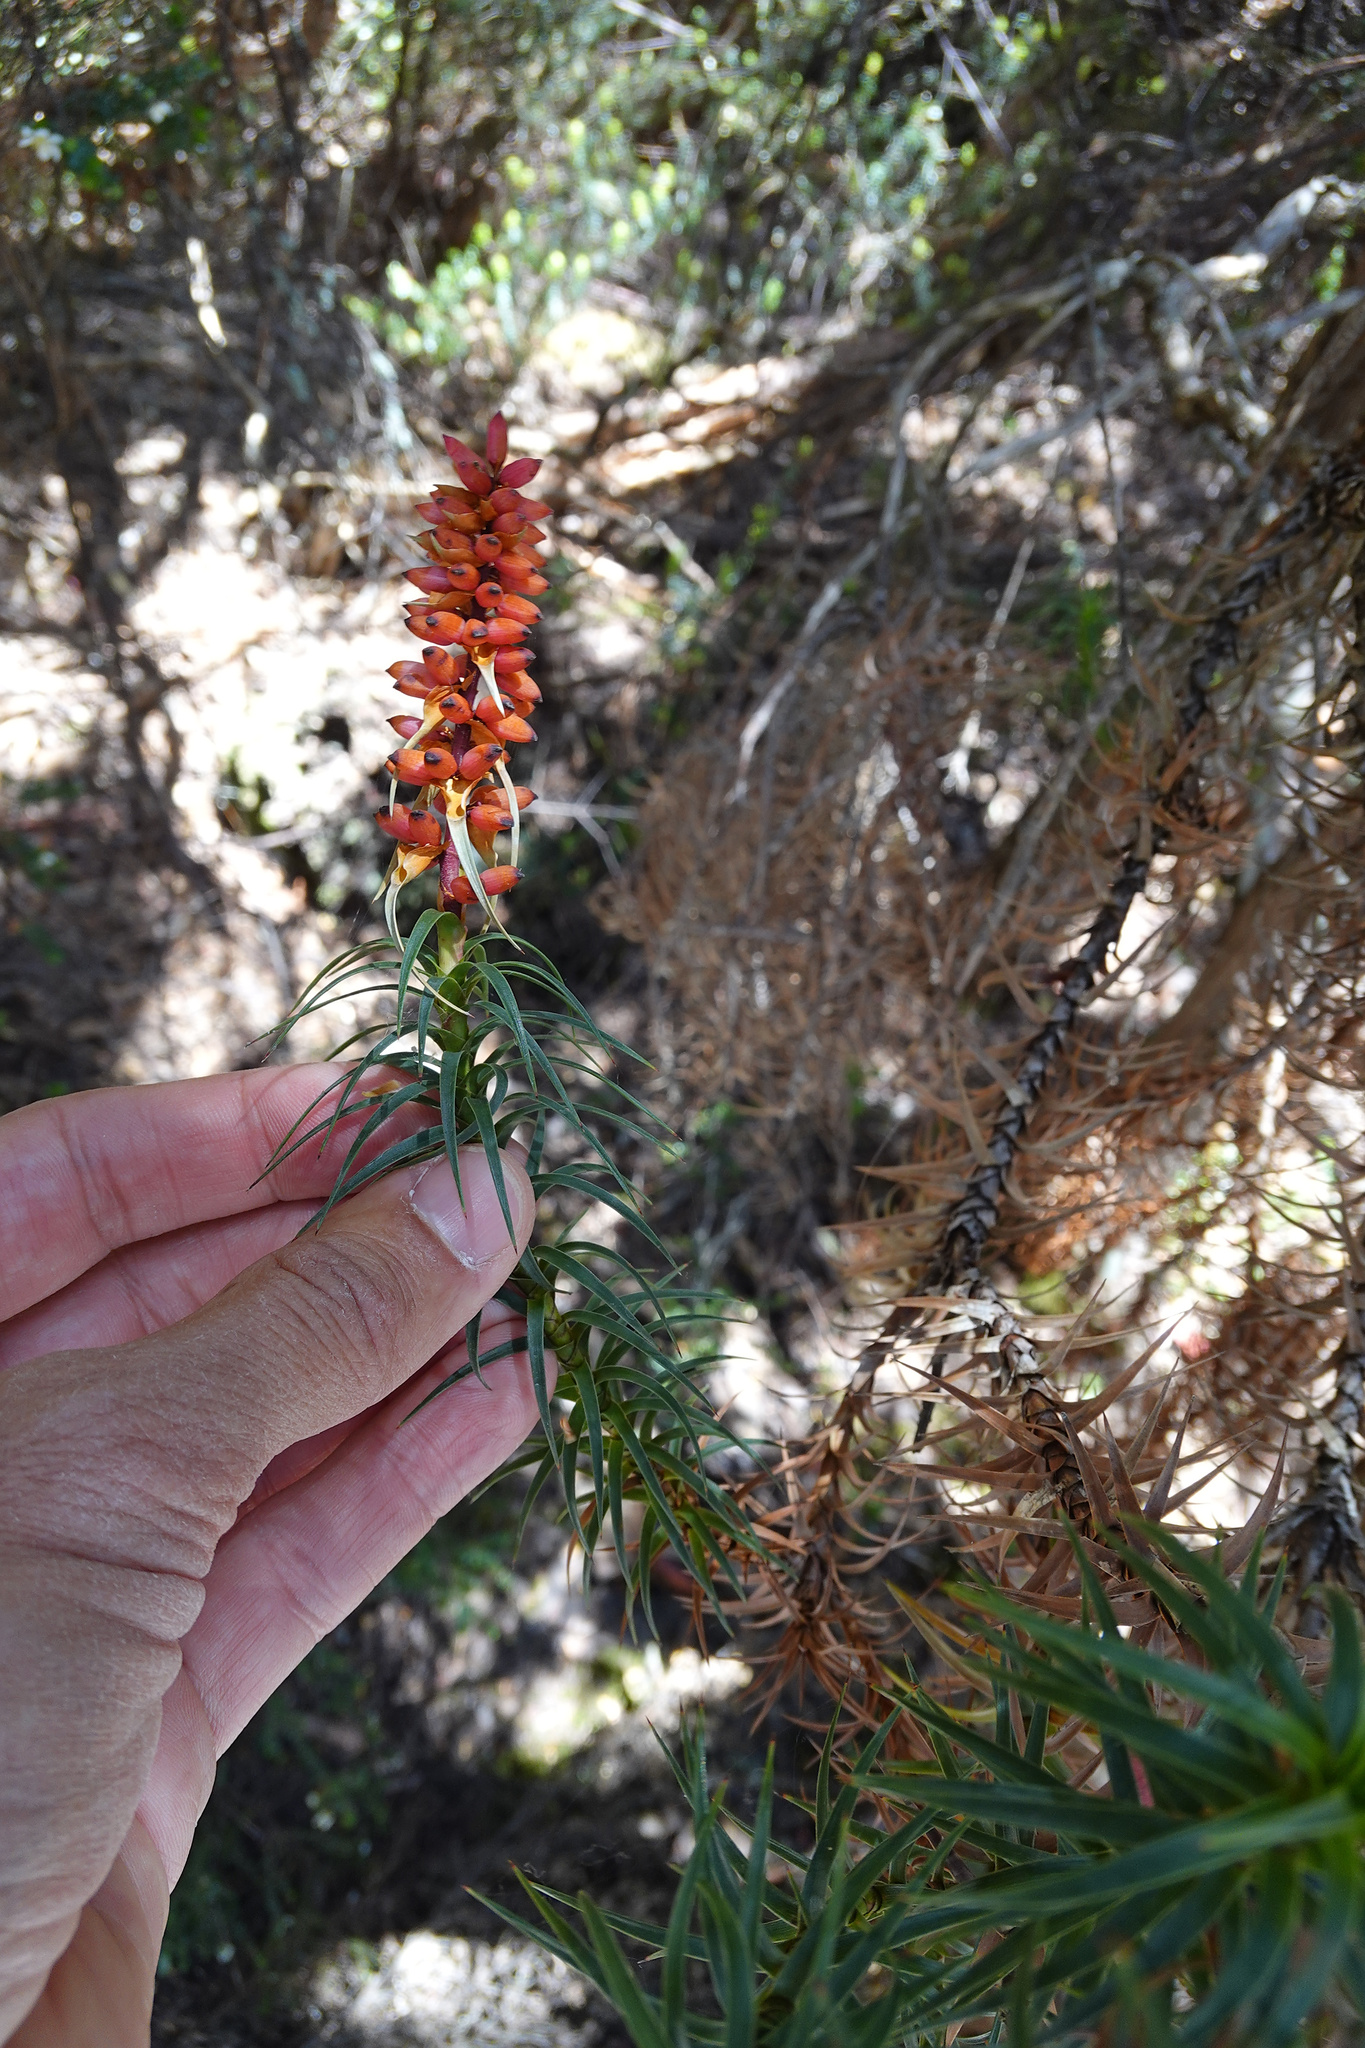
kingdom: Plantae
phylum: Tracheophyta
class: Magnoliopsida
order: Ericales
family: Ericaceae
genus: Dracophyllum
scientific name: Dracophyllum persistentifolium
